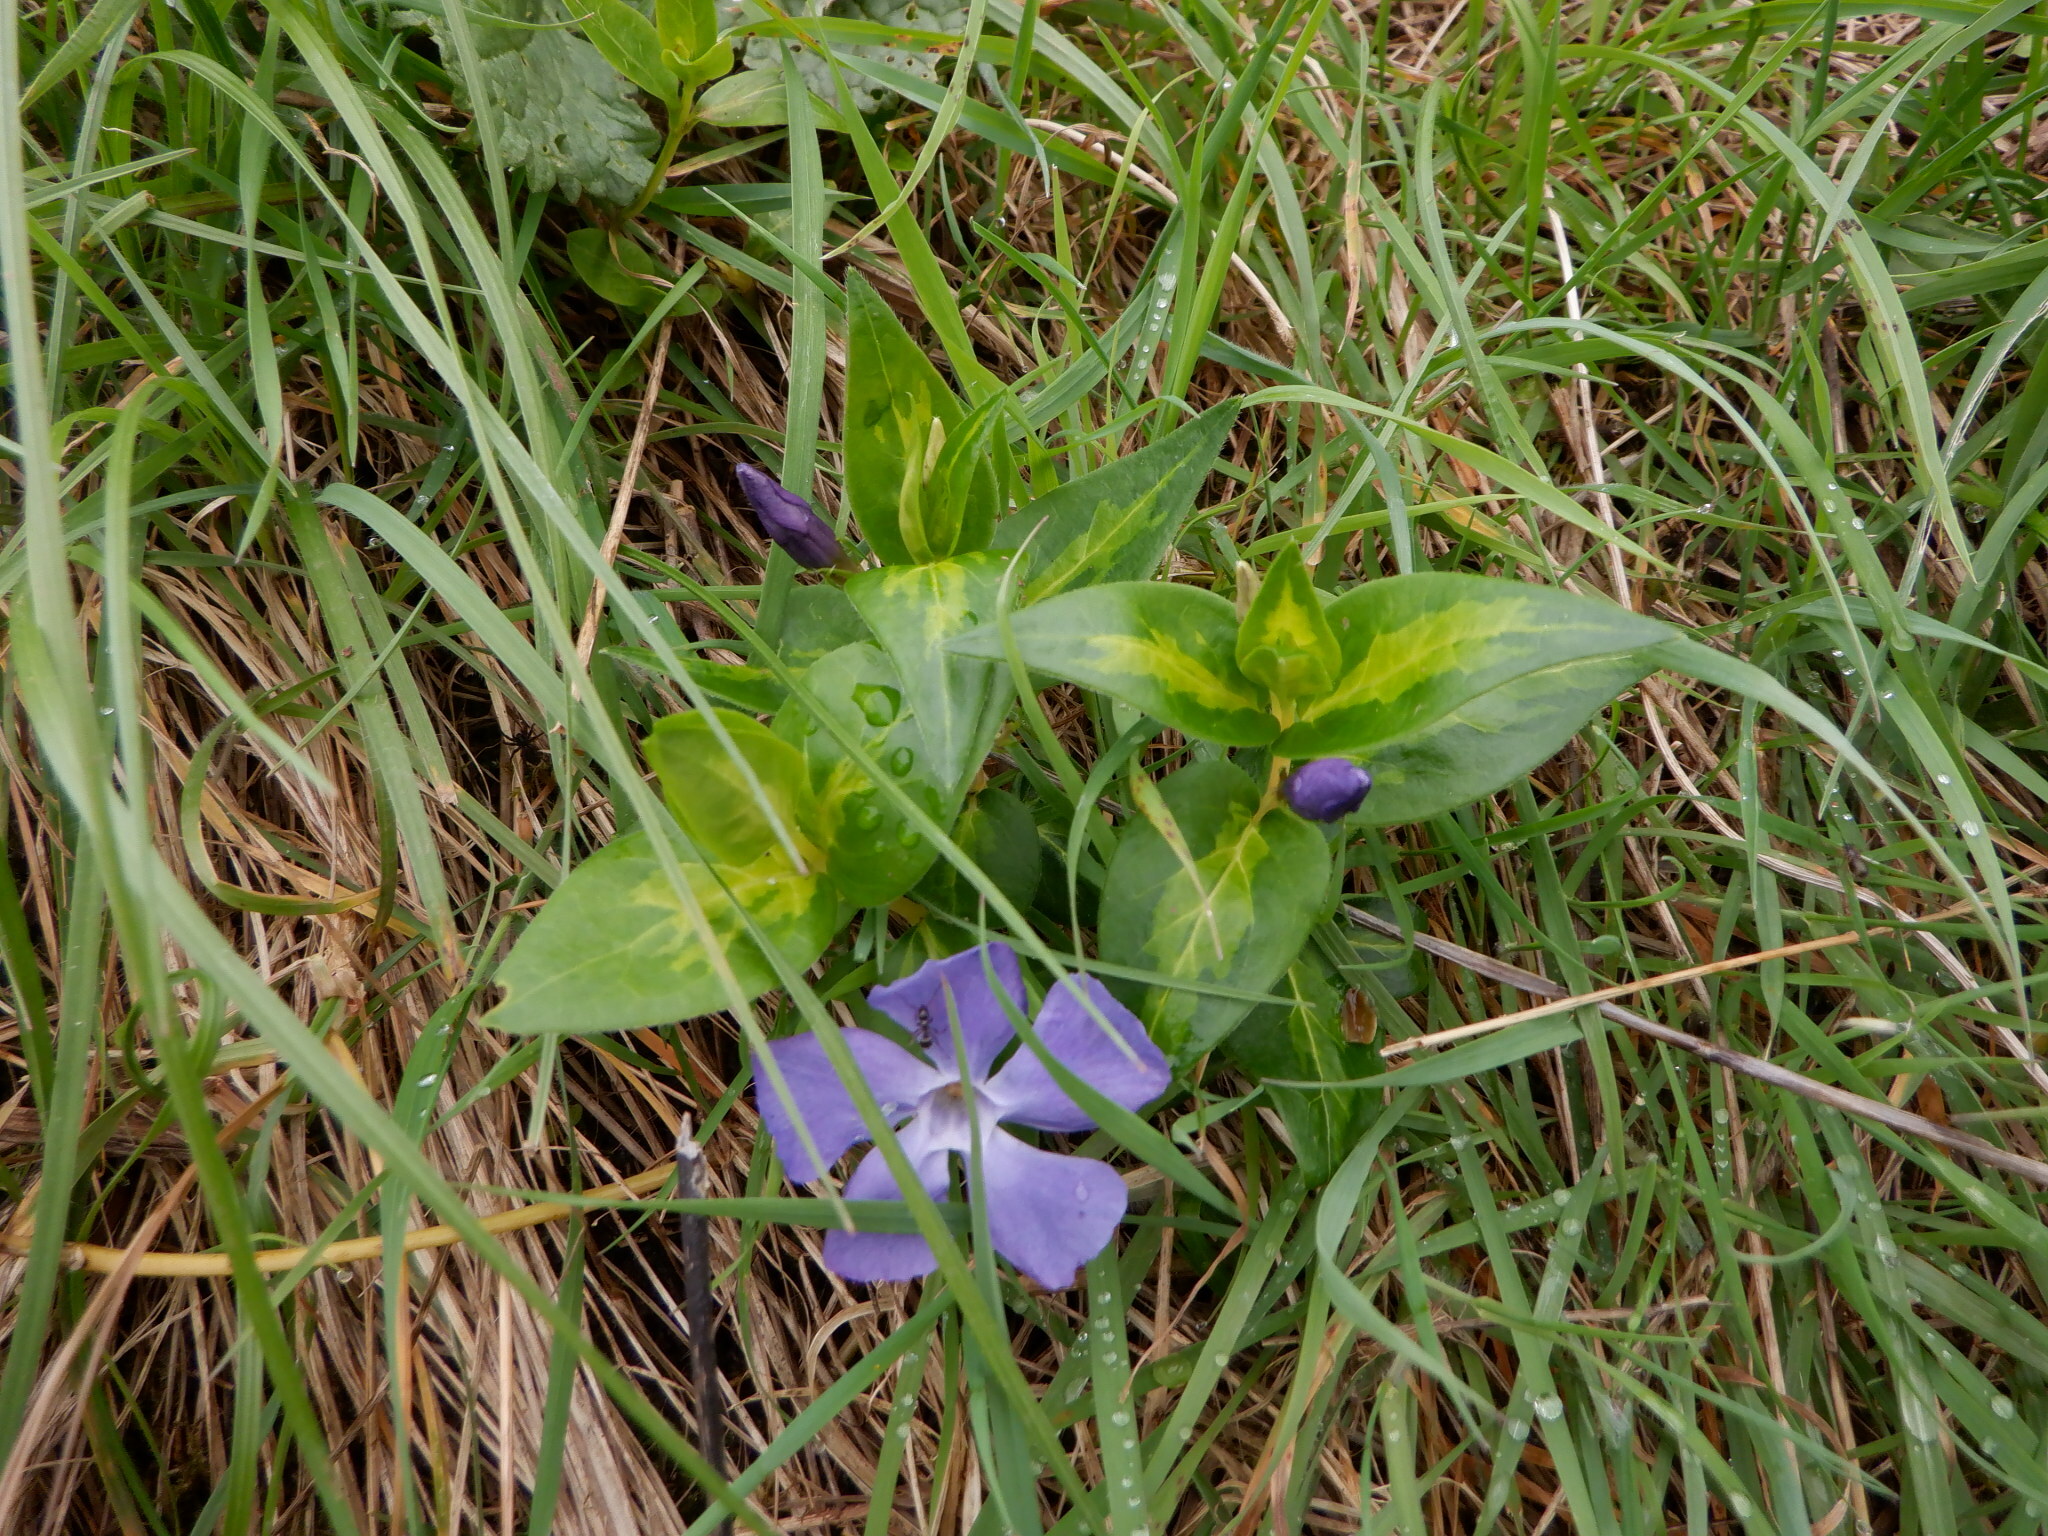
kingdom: Plantae
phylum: Tracheophyta
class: Magnoliopsida
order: Gentianales
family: Apocynaceae
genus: Vinca
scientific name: Vinca major
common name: Greater periwinkle
